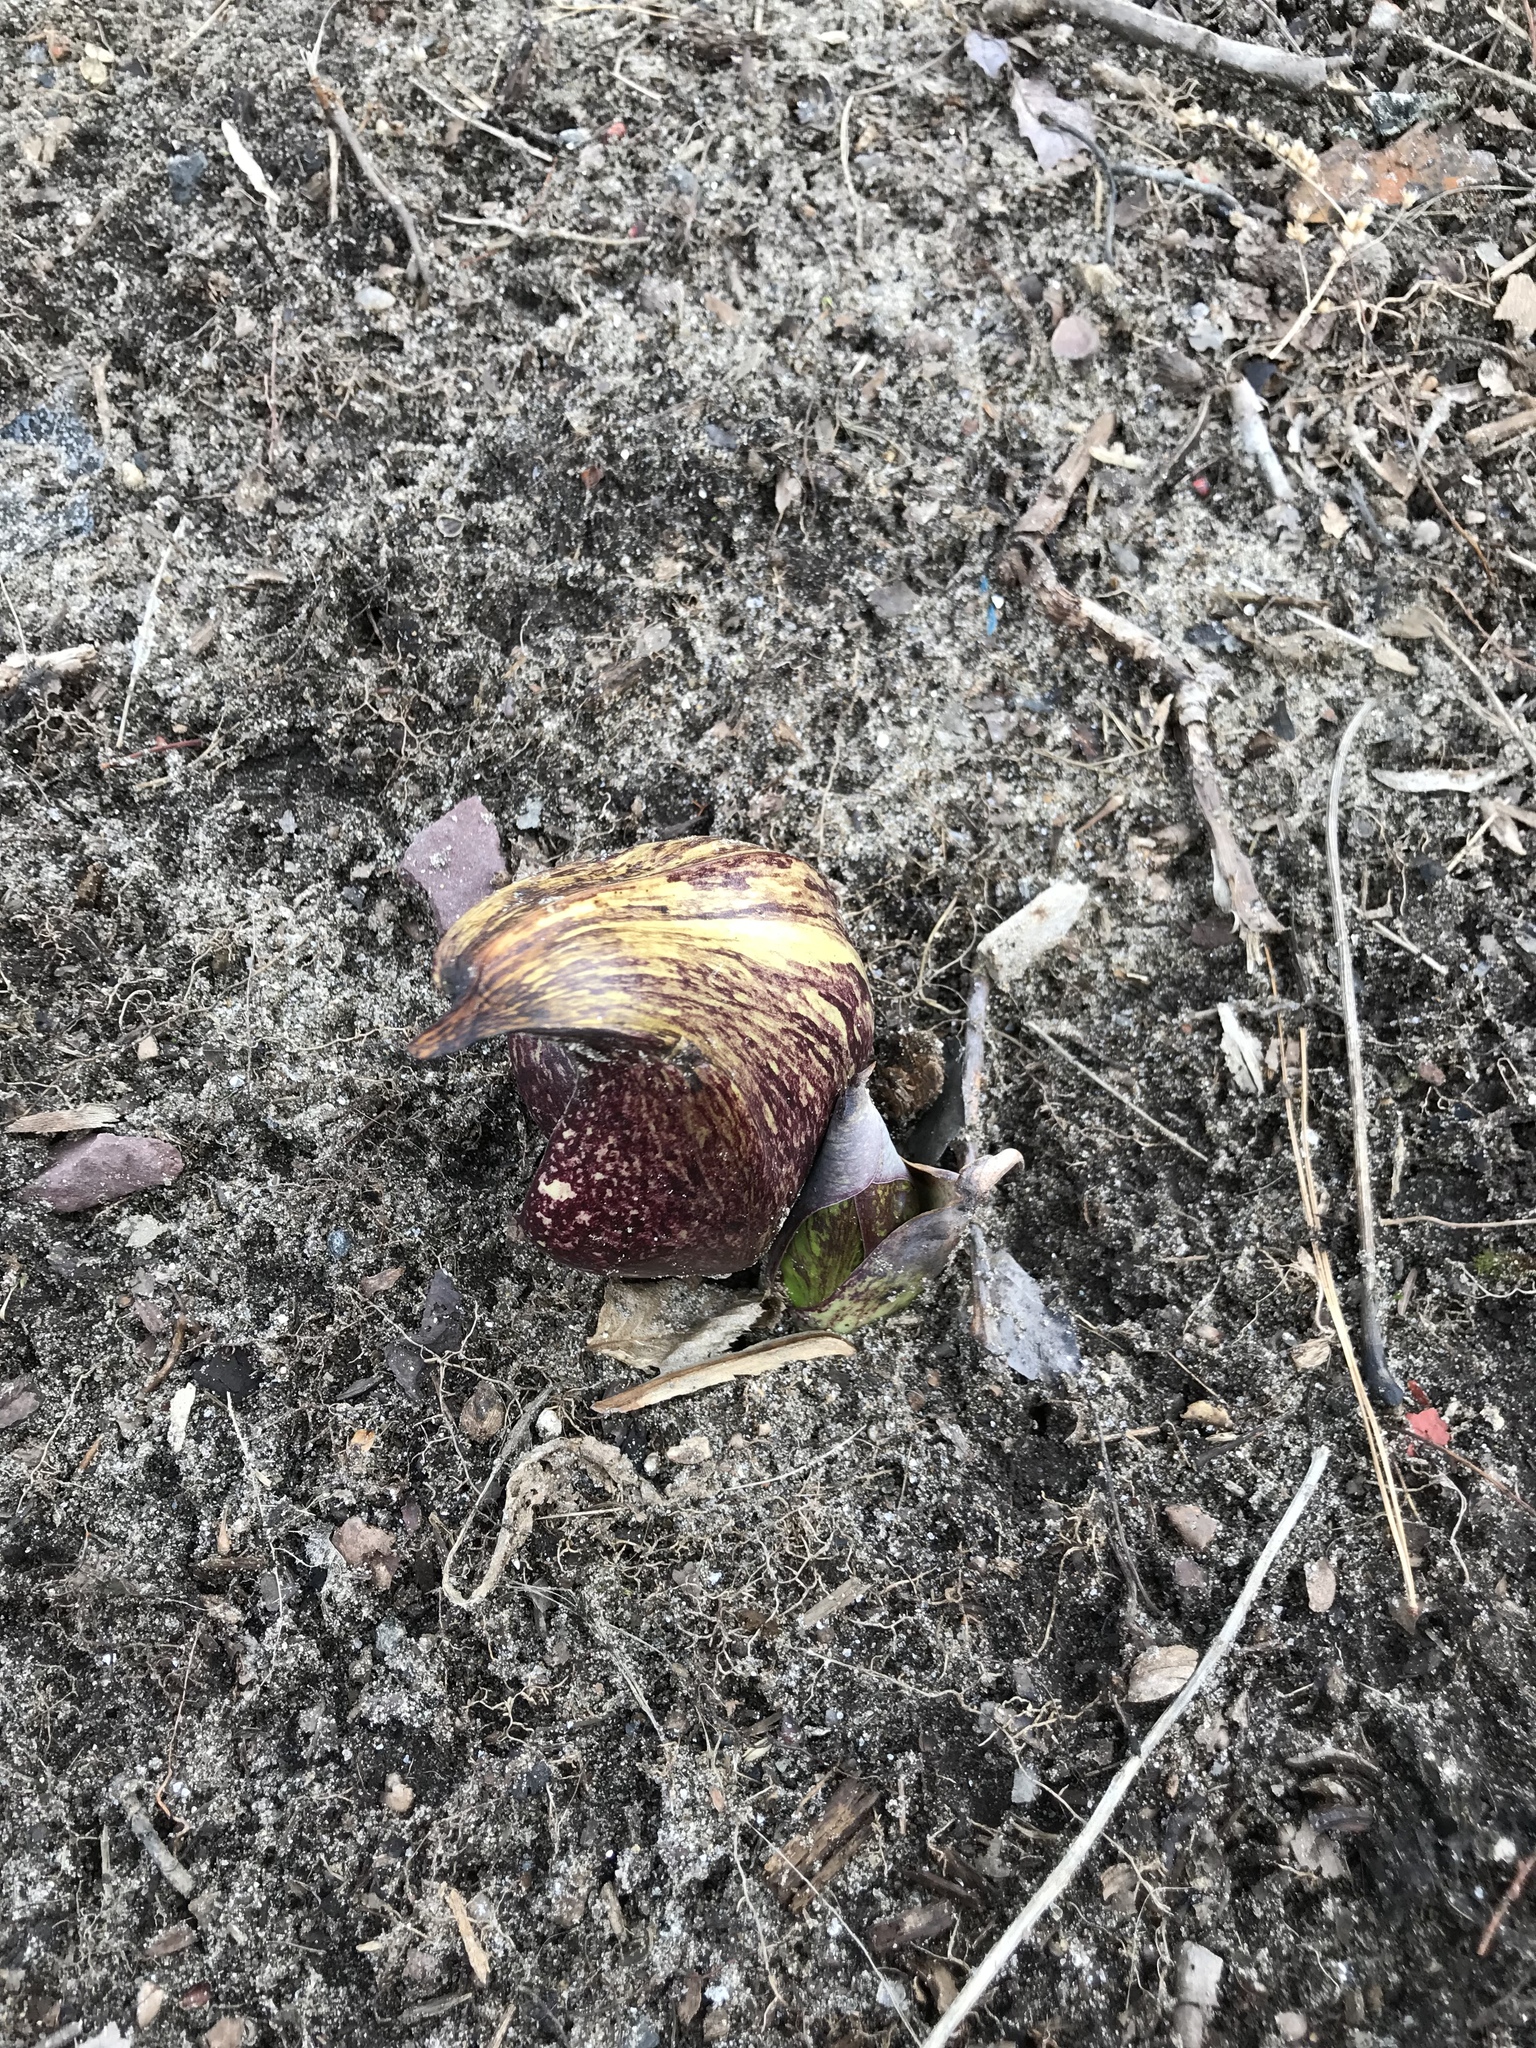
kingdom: Plantae
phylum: Tracheophyta
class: Liliopsida
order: Alismatales
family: Araceae
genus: Symplocarpus
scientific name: Symplocarpus foetidus
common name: Eastern skunk cabbage
